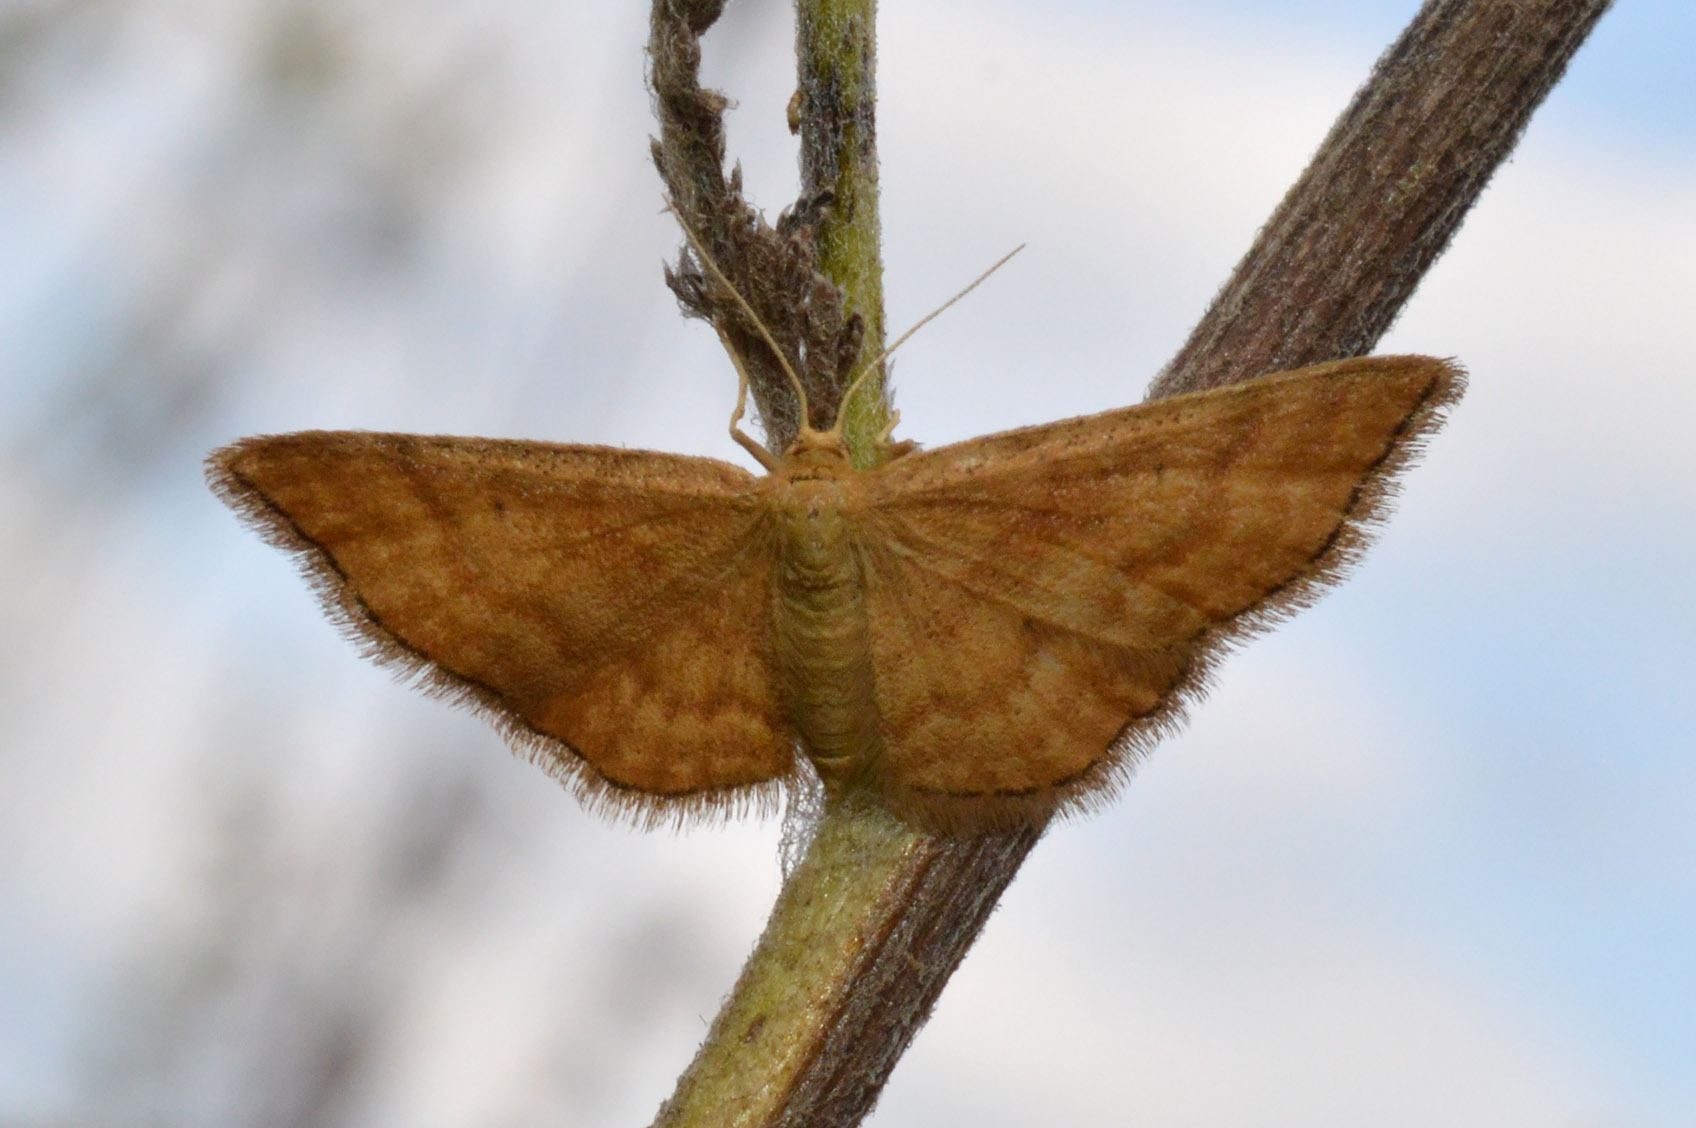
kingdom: Animalia
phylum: Arthropoda
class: Insecta
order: Lepidoptera
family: Geometridae
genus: Idaea
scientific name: Idaea serpentata
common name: Ochraceous wave
